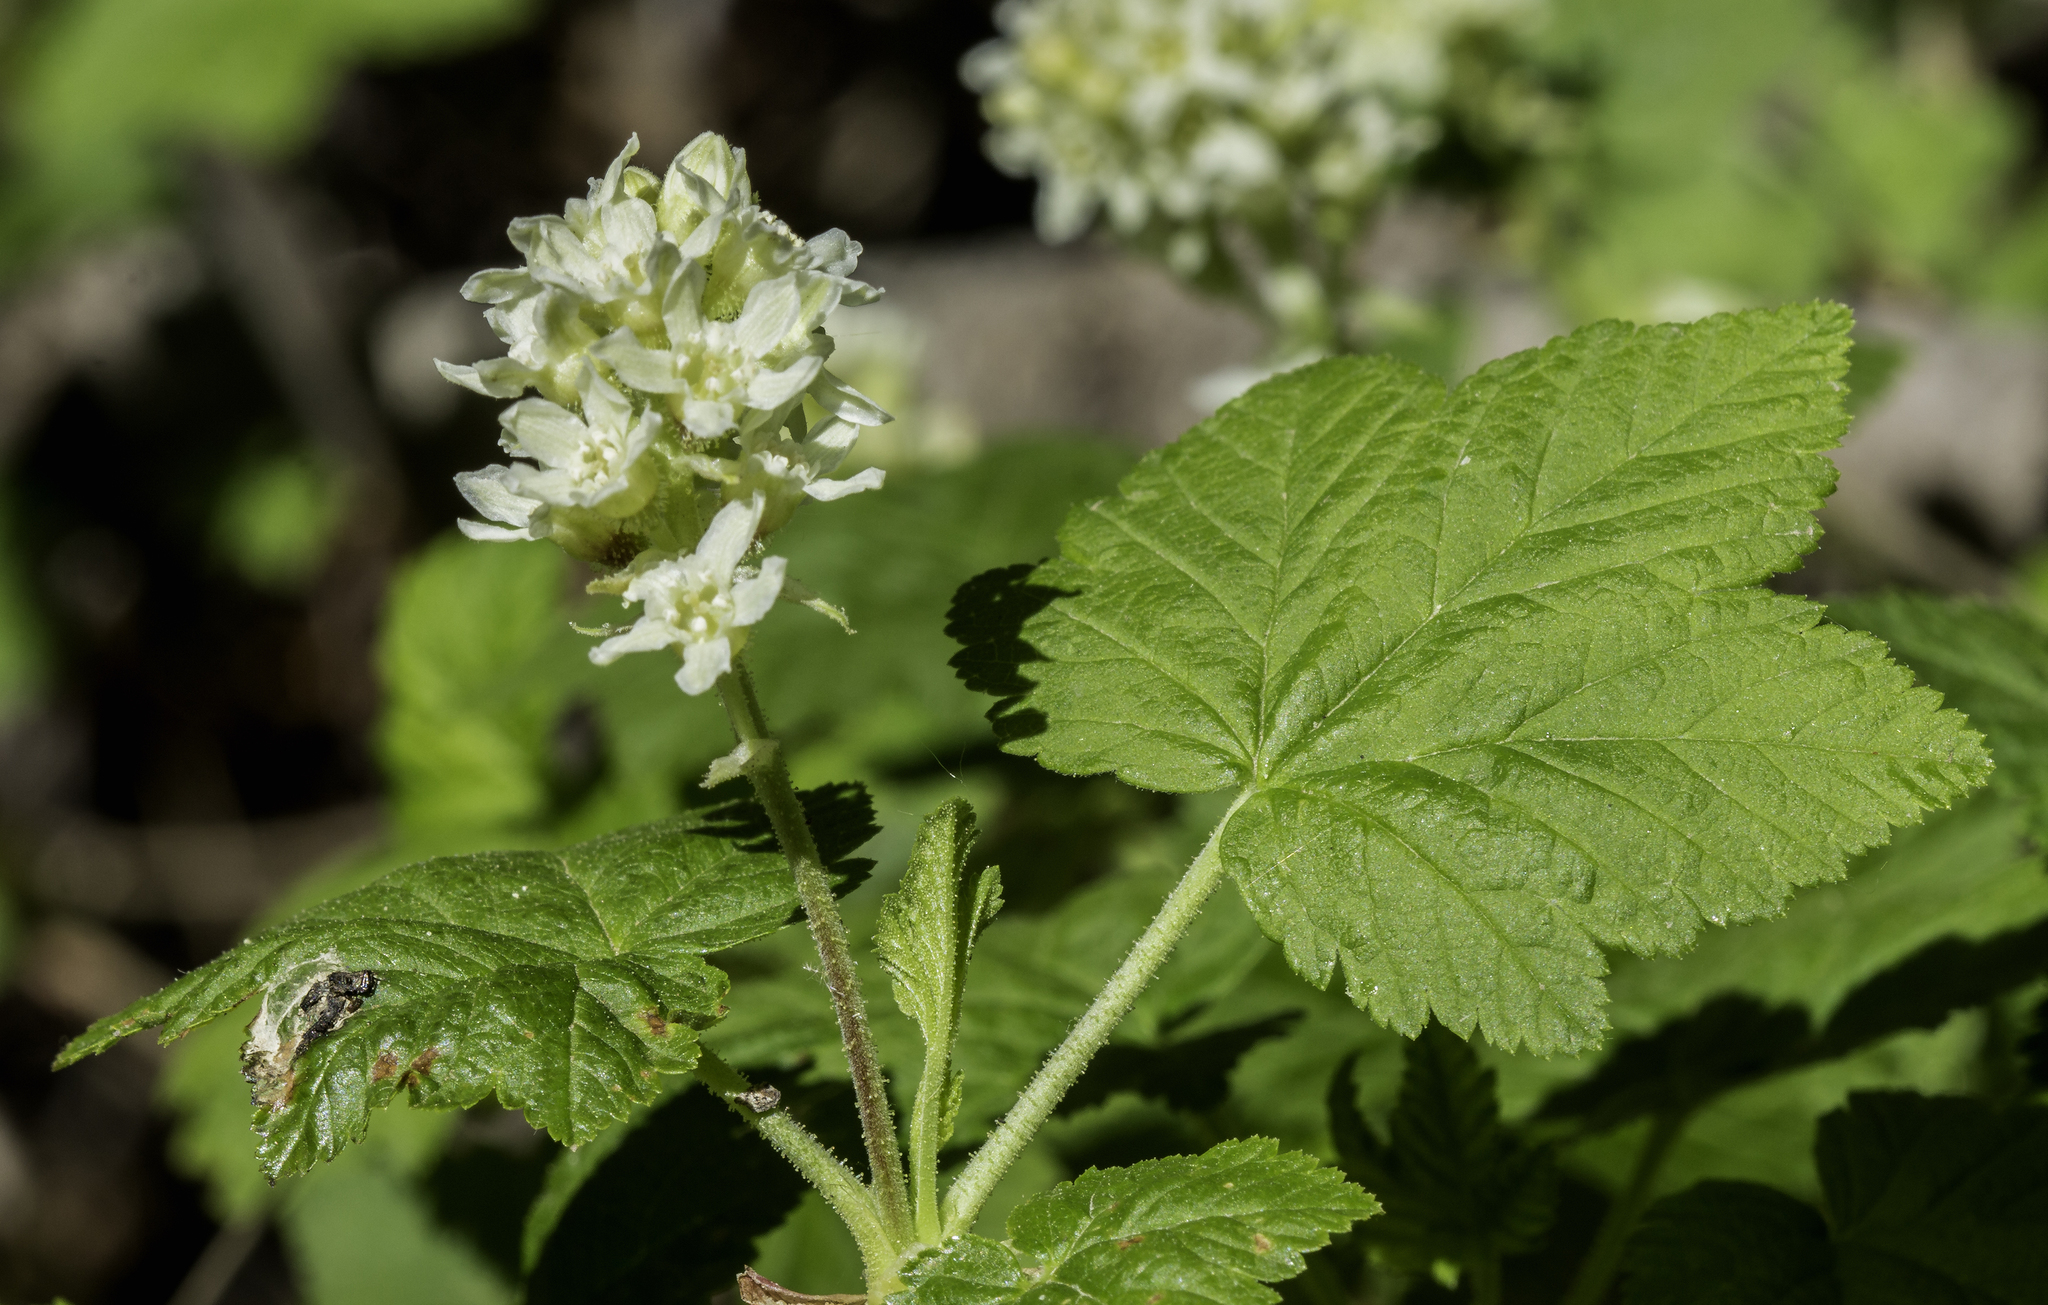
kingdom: Plantae
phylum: Tracheophyta
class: Magnoliopsida
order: Saxifragales
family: Grossulariaceae
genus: Ribes
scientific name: Ribes wolfii
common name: Rothrock currant
